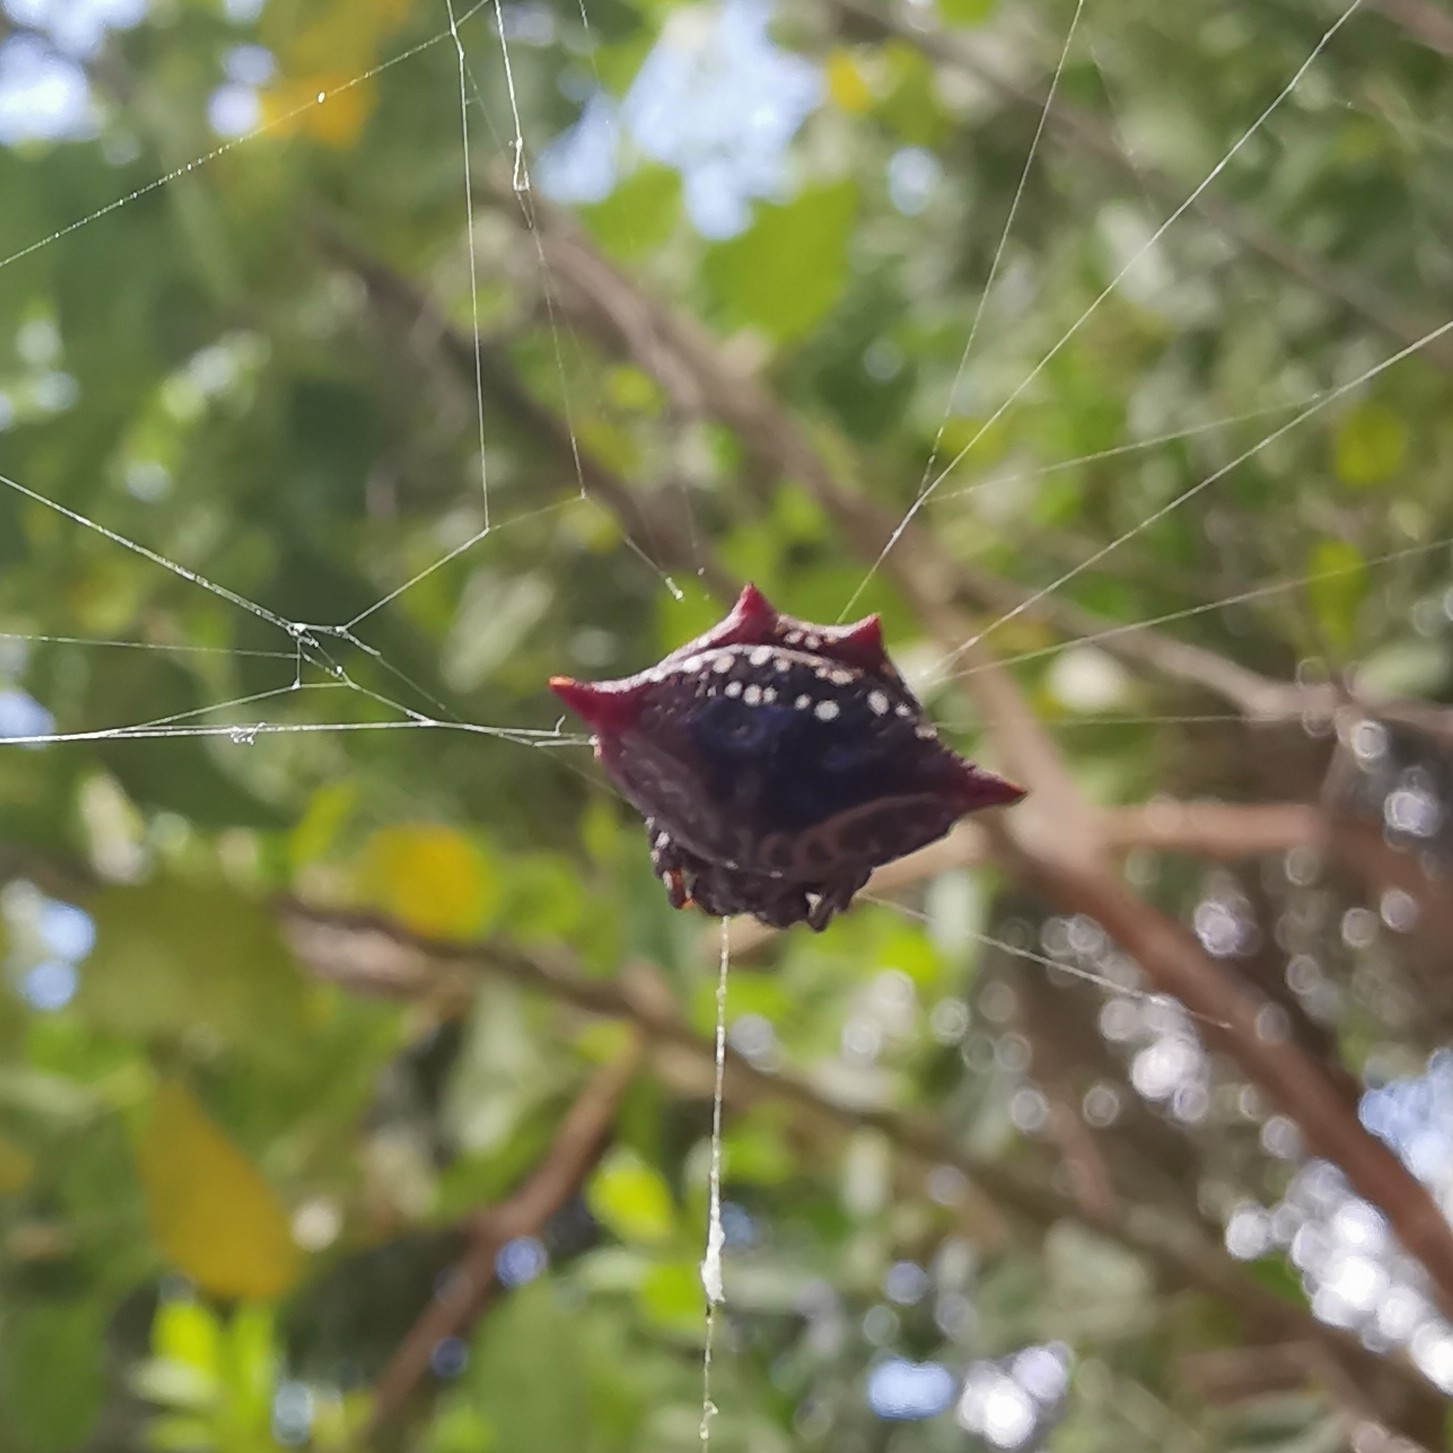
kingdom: Animalia
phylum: Arthropoda
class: Arachnida
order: Araneae
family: Araneidae
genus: Gasteracantha
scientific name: Gasteracantha cancriformis
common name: Orb weavers
